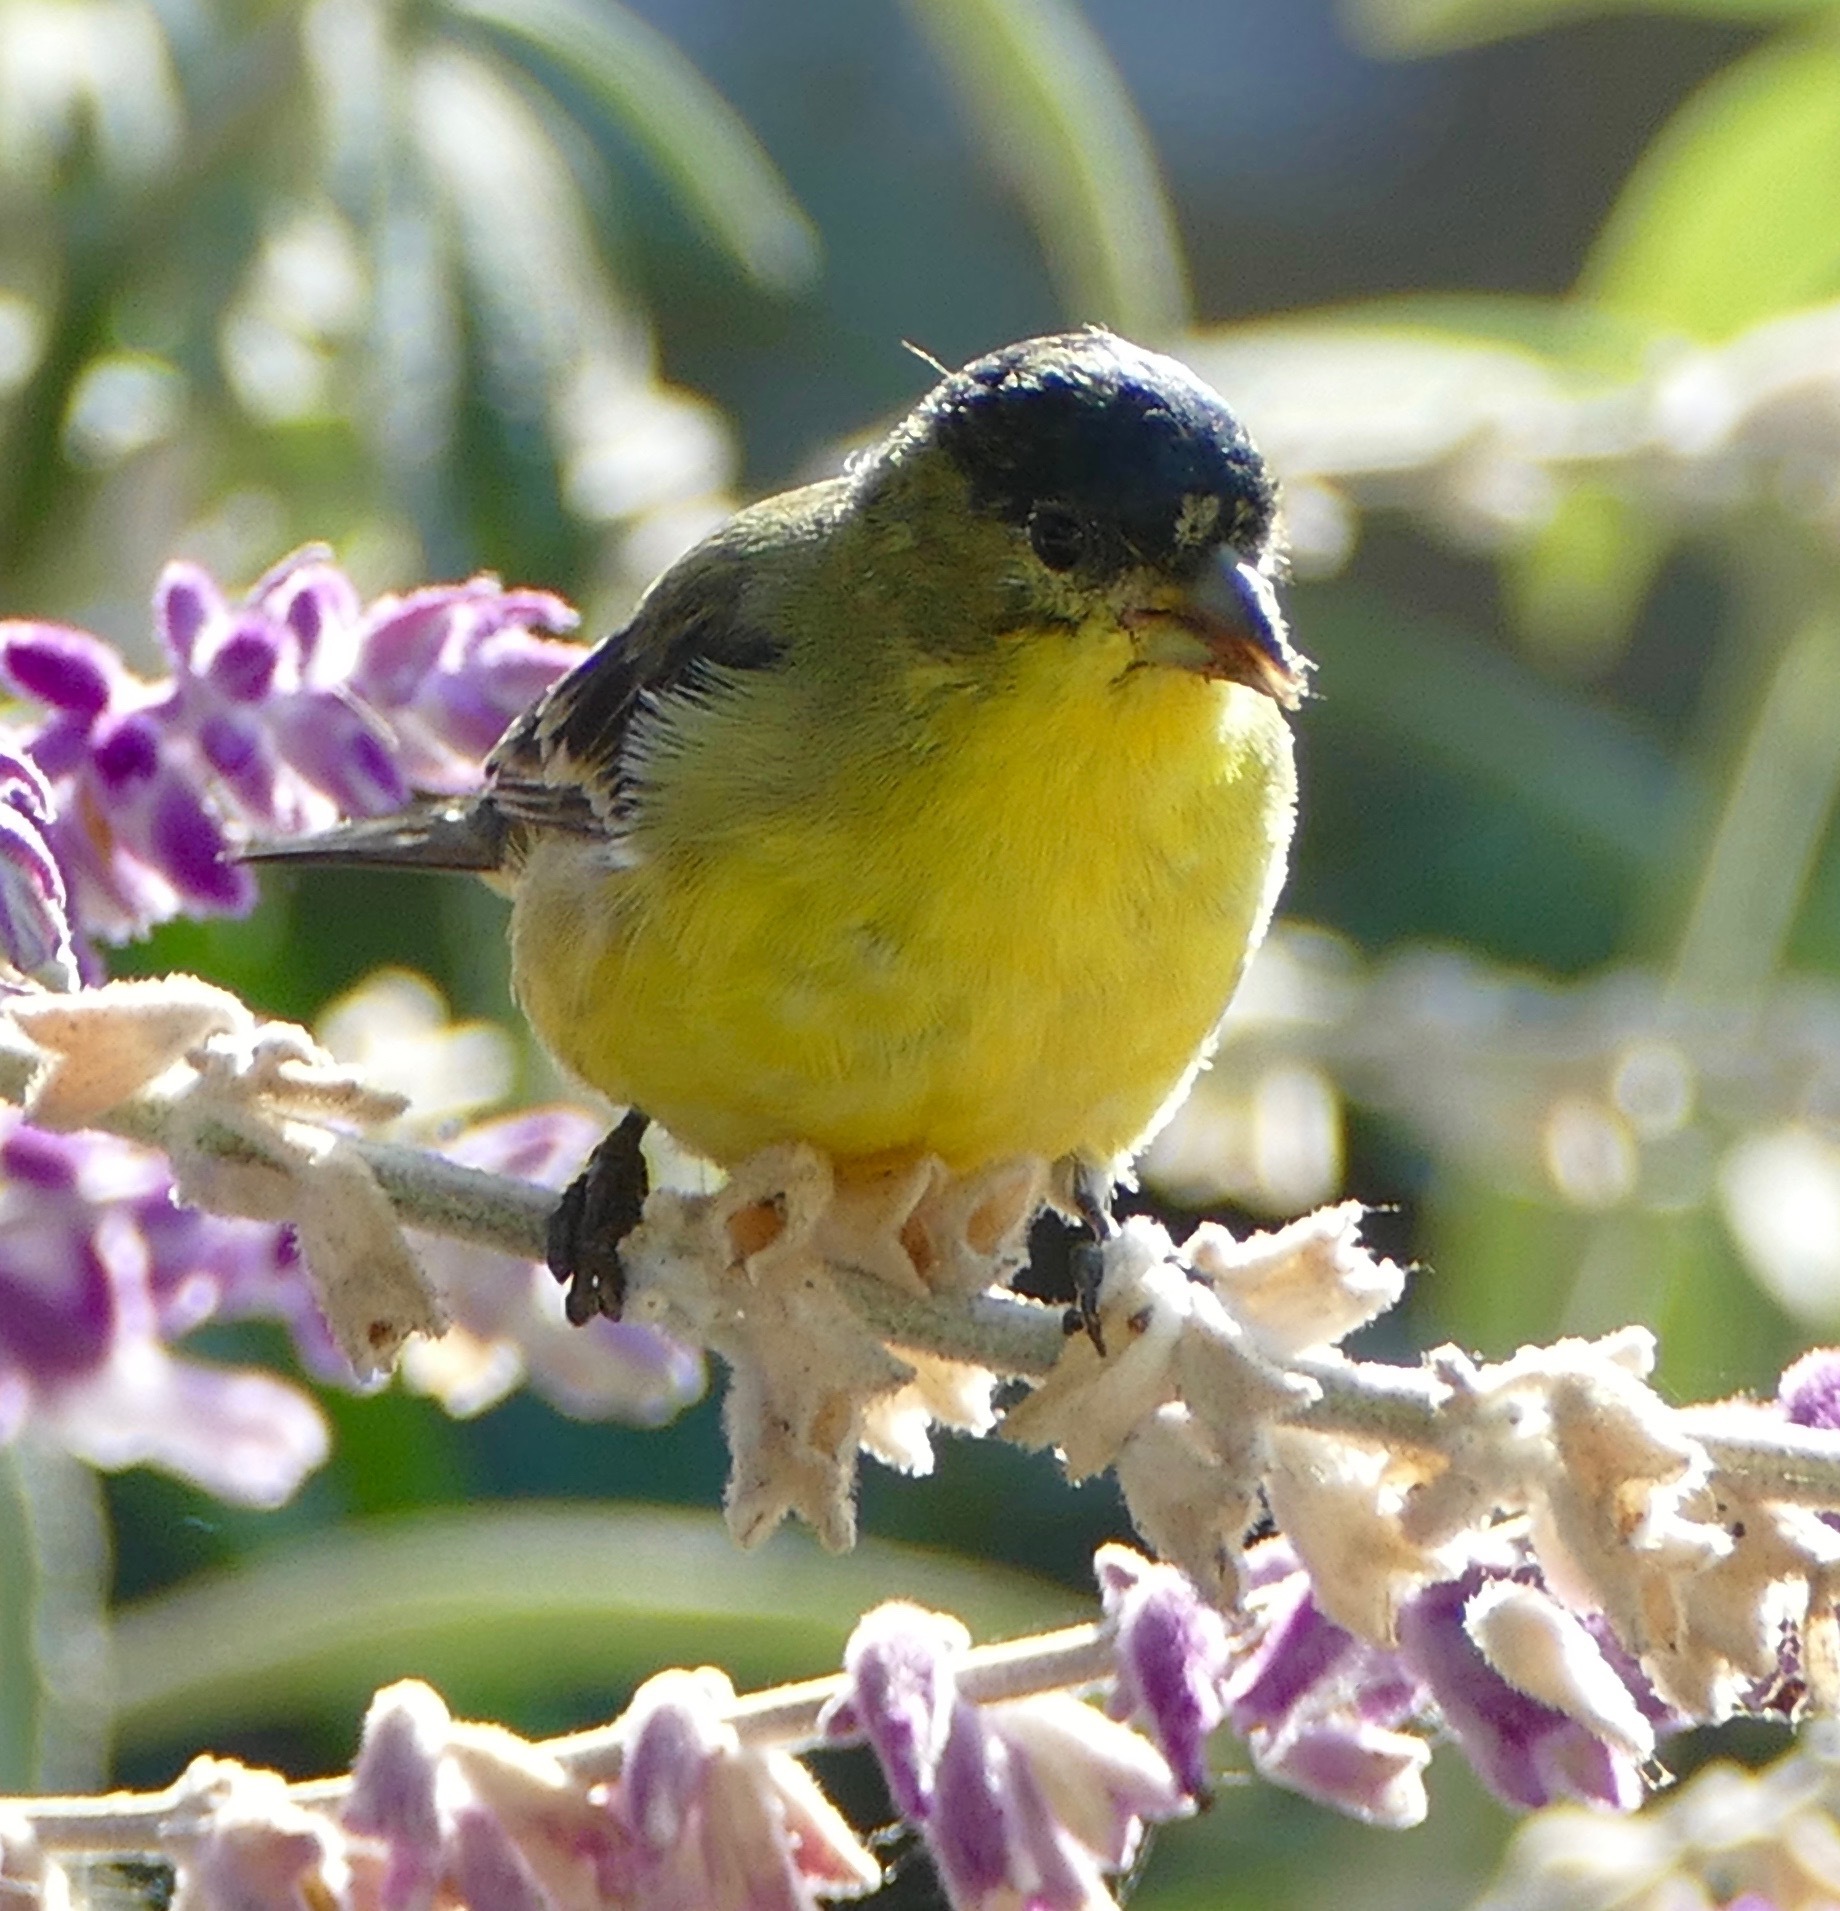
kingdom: Animalia
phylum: Chordata
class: Aves
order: Passeriformes
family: Fringillidae
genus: Spinus
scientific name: Spinus psaltria
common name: Lesser goldfinch
